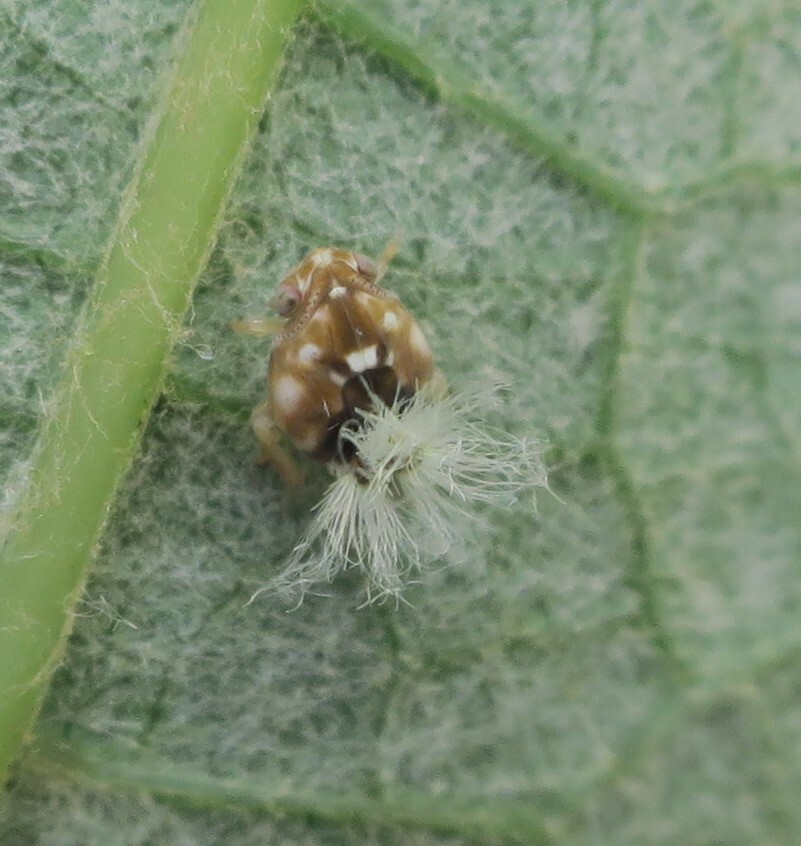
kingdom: Animalia
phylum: Arthropoda
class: Insecta
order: Hemiptera
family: Ricaniidae
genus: Scolypopa
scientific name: Scolypopa australis
